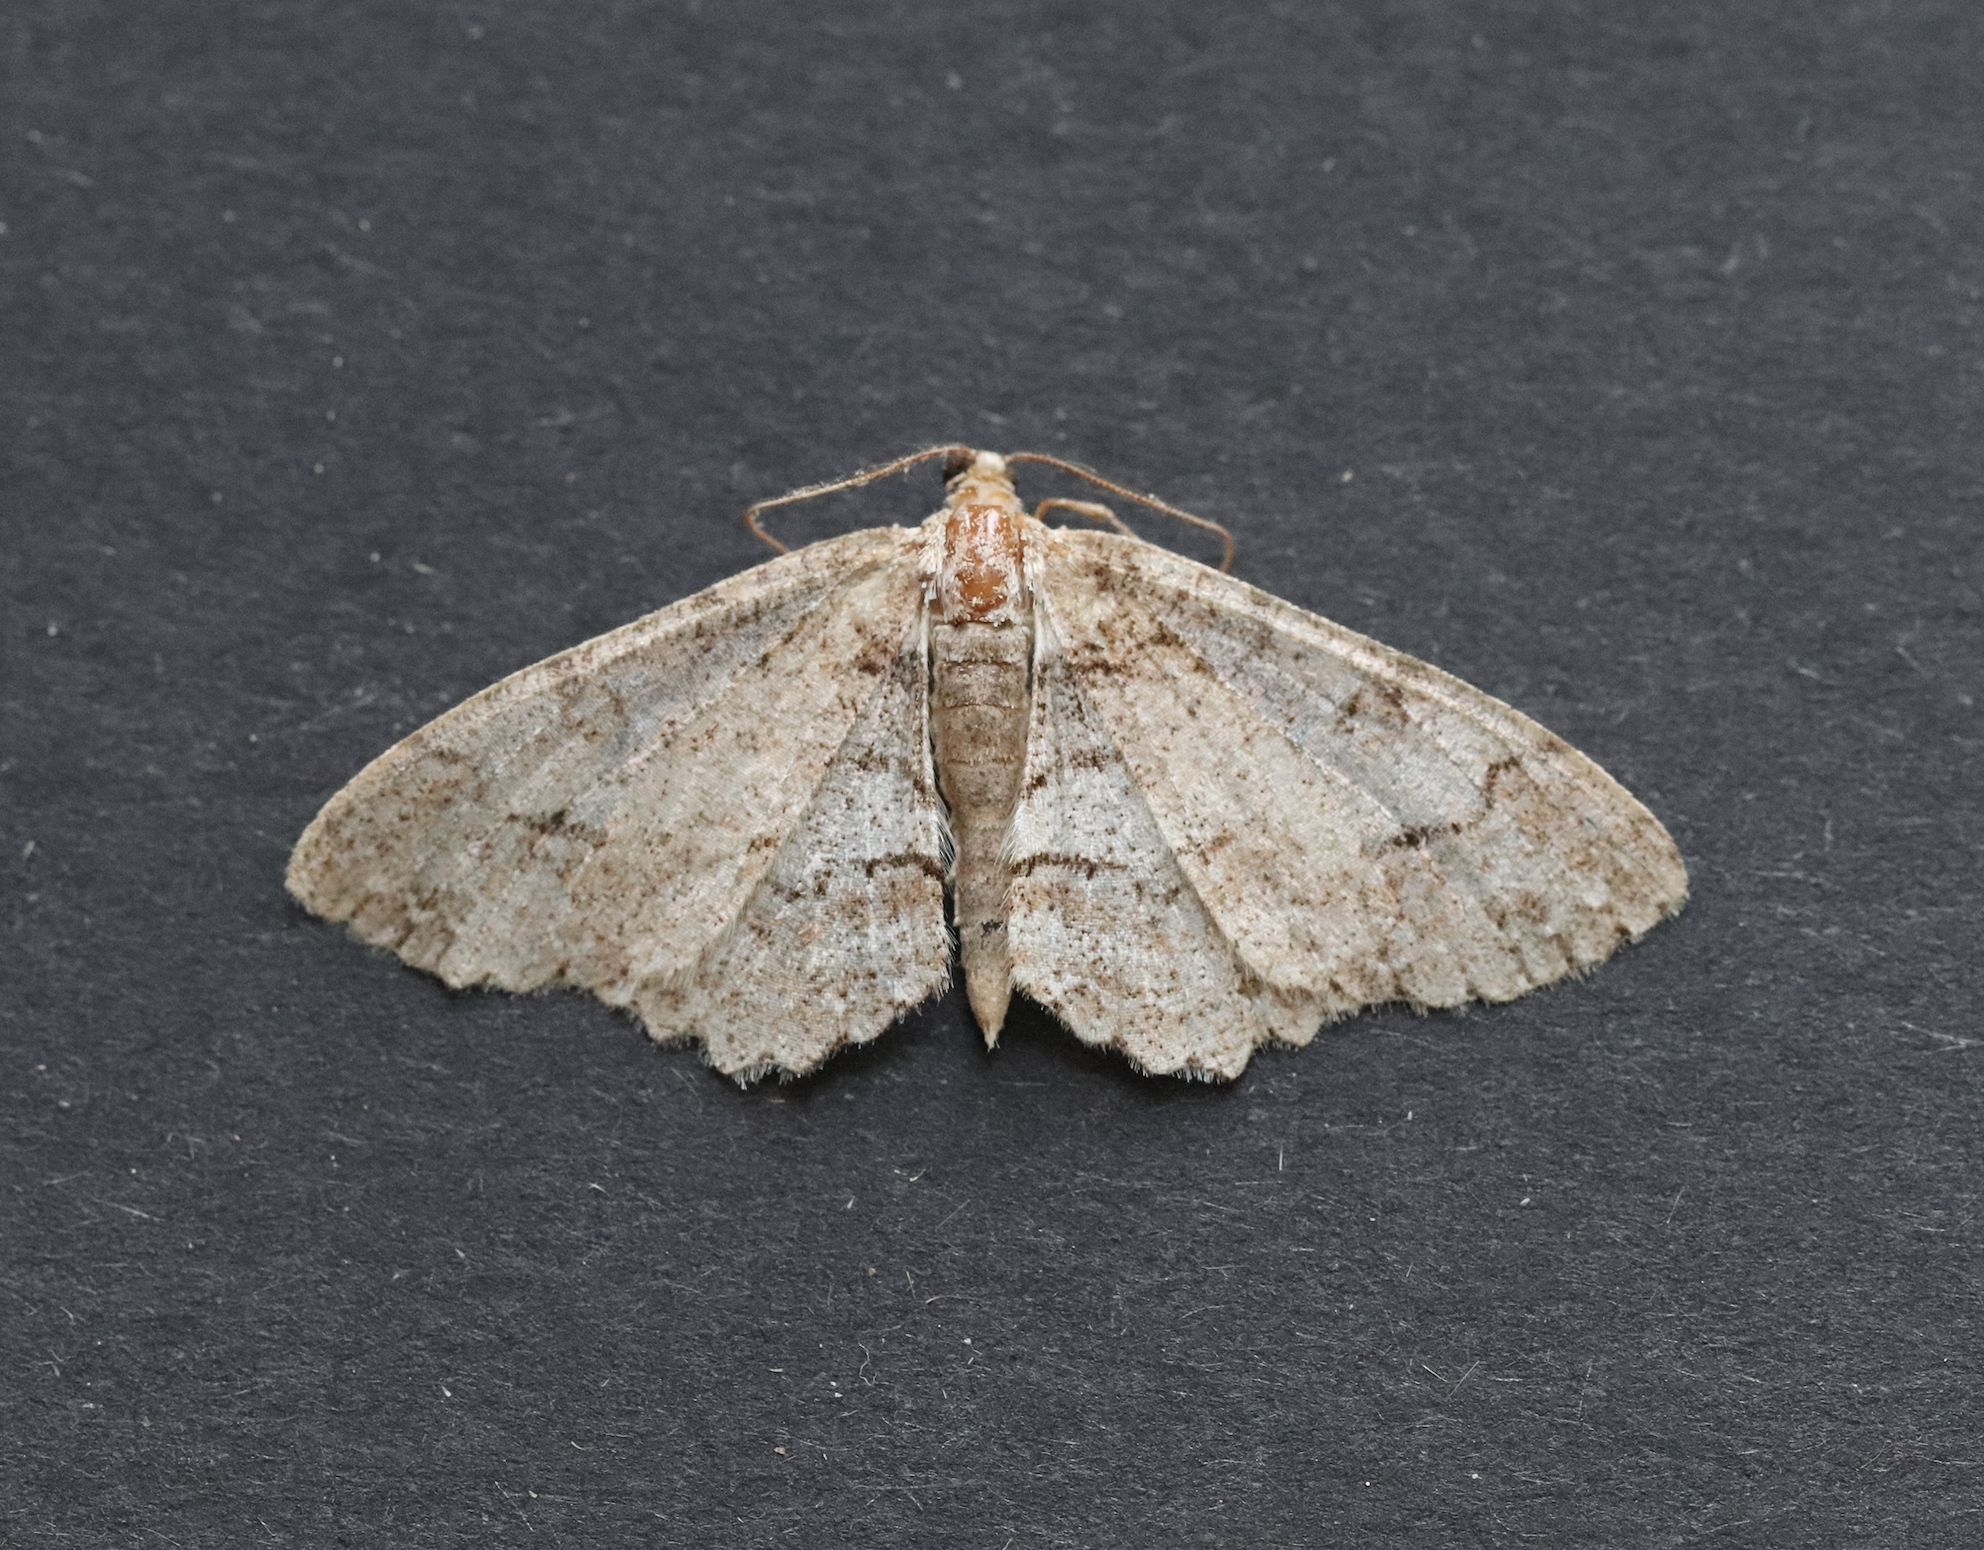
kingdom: Animalia
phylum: Arthropoda
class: Insecta
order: Lepidoptera
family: Geometridae
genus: Paradarisa
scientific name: Paradarisa consonaria
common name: Square spot
